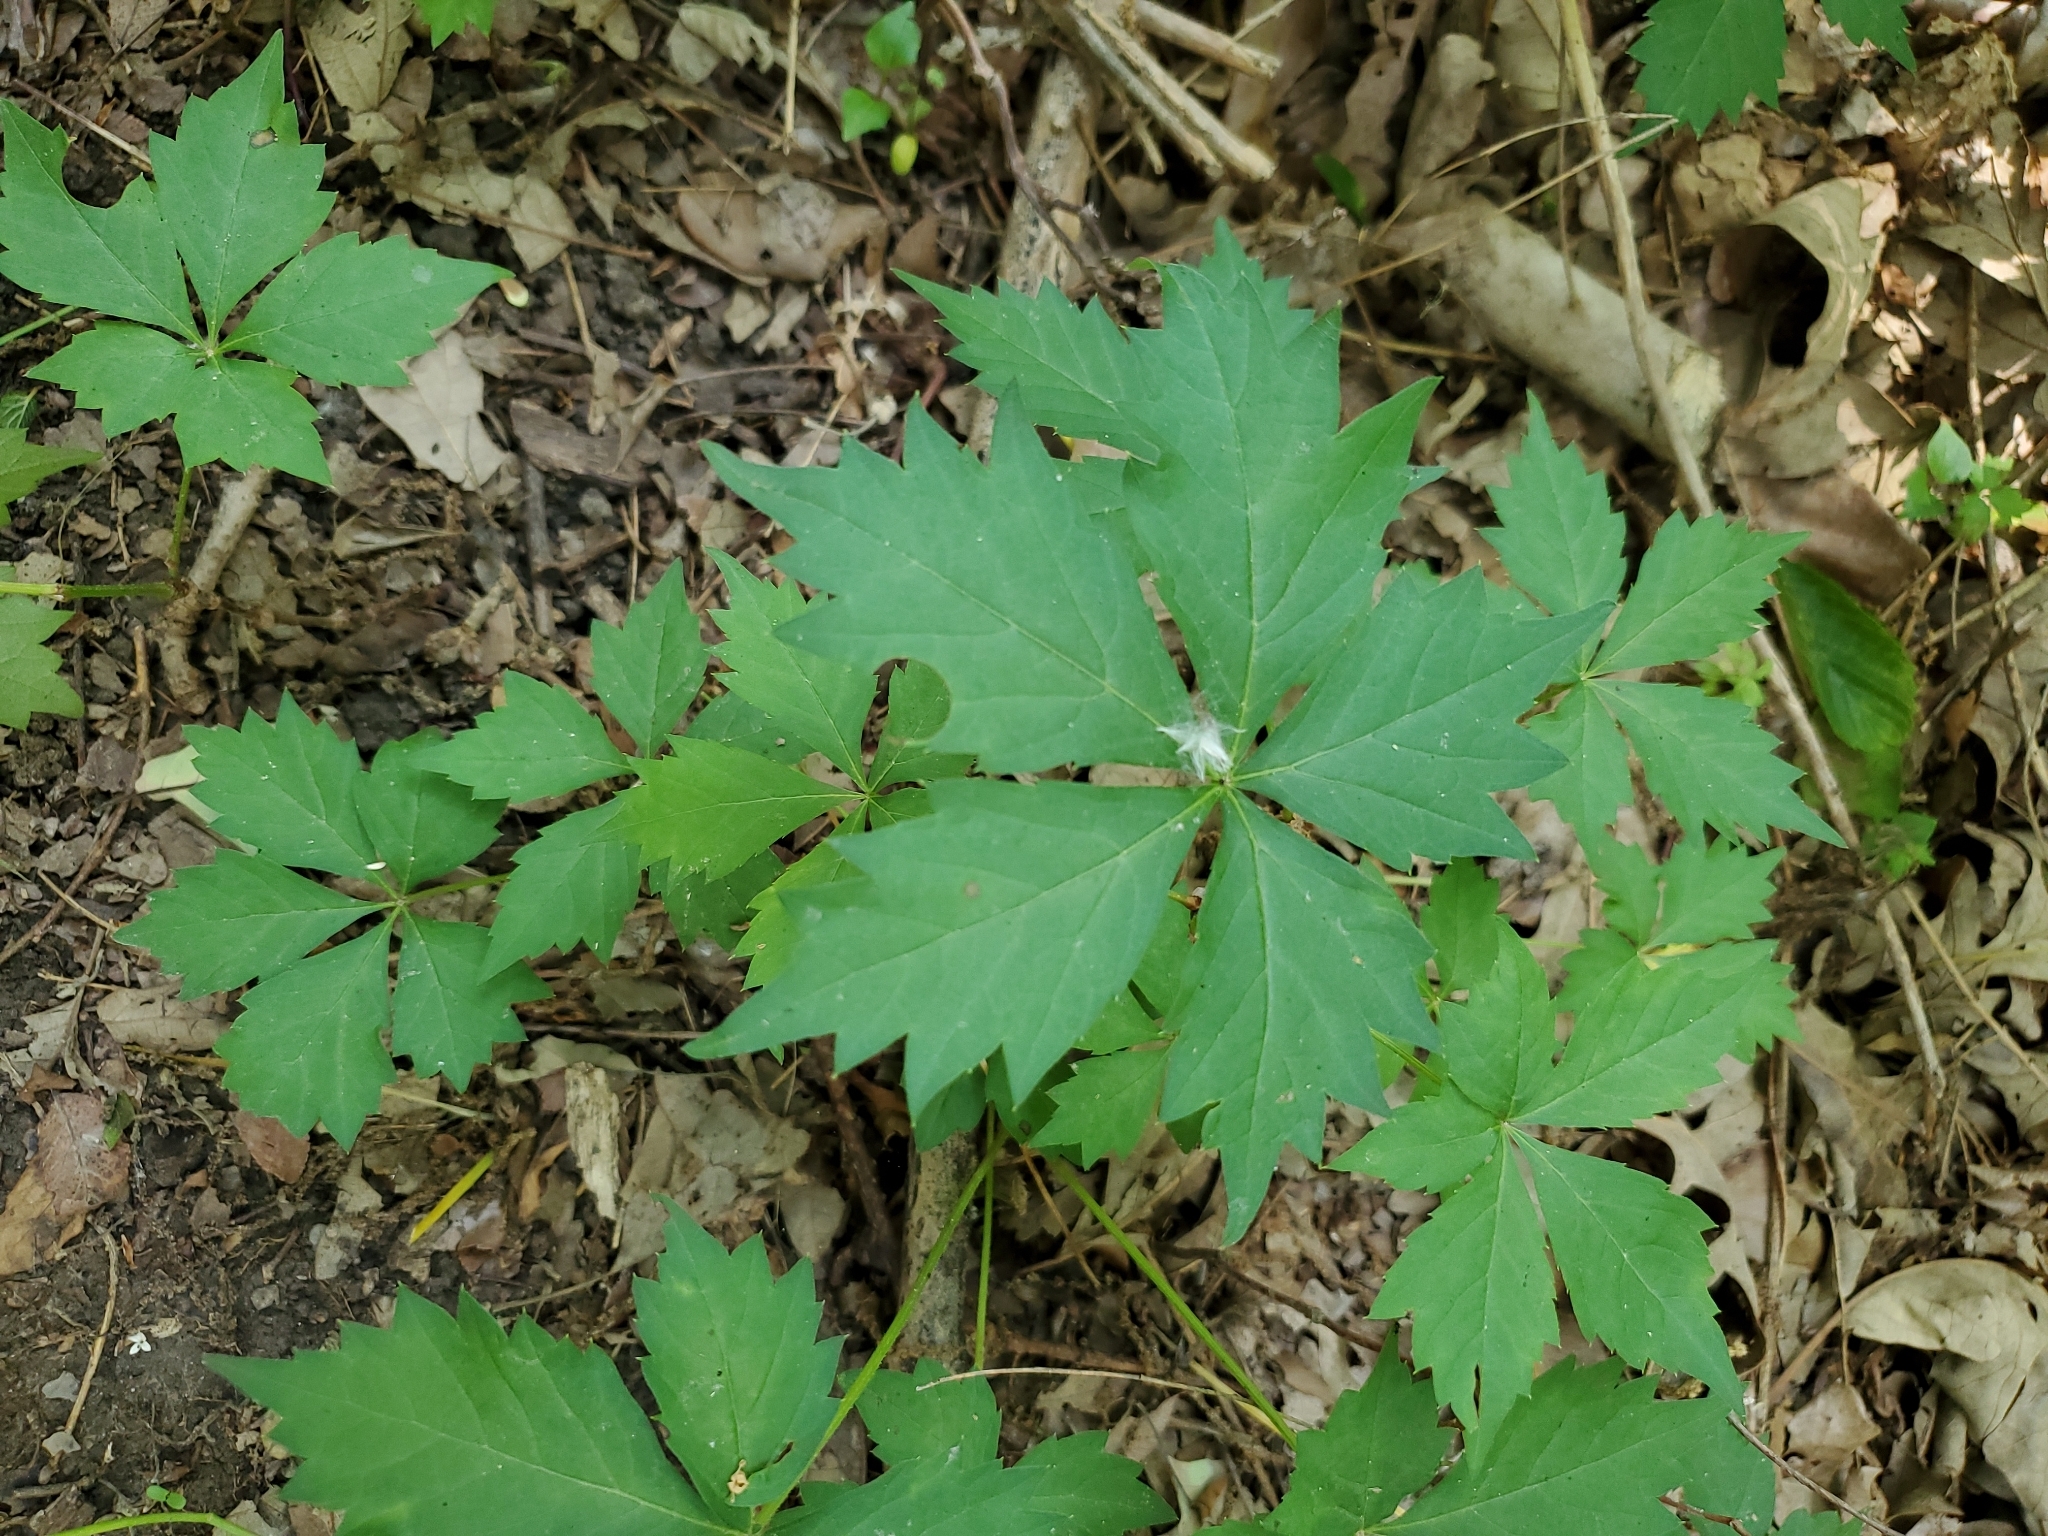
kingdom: Plantae
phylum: Tracheophyta
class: Magnoliopsida
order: Vitales
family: Vitaceae
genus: Parthenocissus
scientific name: Parthenocissus quinquefolia
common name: Virginia-creeper
